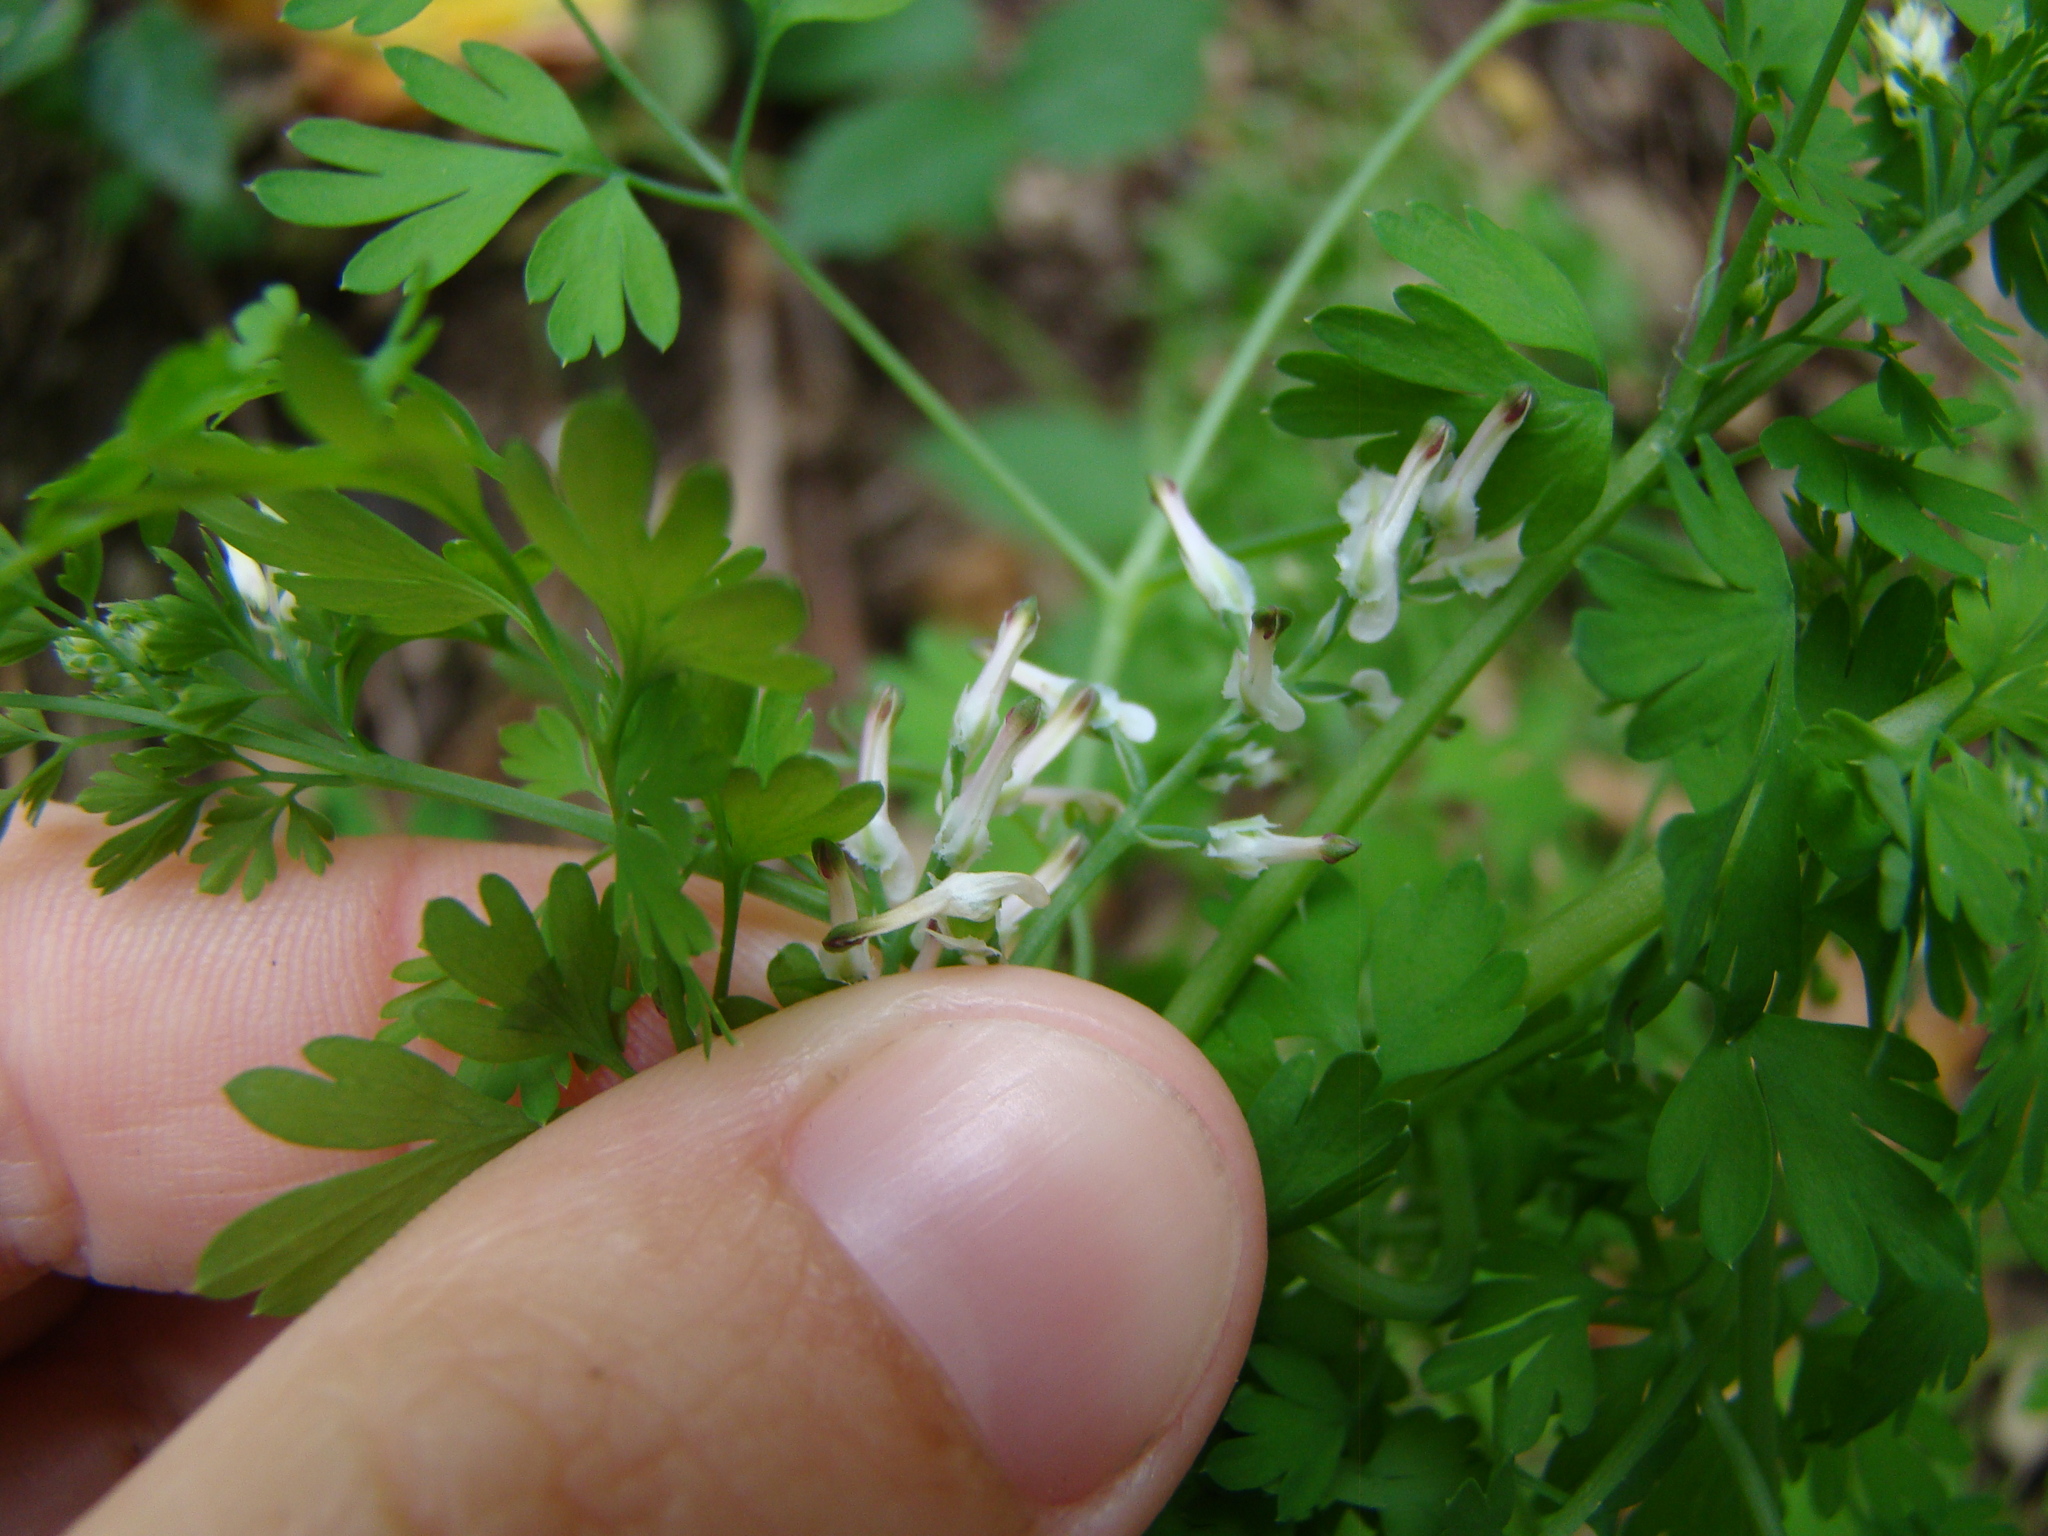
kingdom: Plantae
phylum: Tracheophyta
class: Magnoliopsida
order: Ranunculales
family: Papaveraceae
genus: Fumaria
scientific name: Fumaria capreolata
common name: White ramping-fumitory
